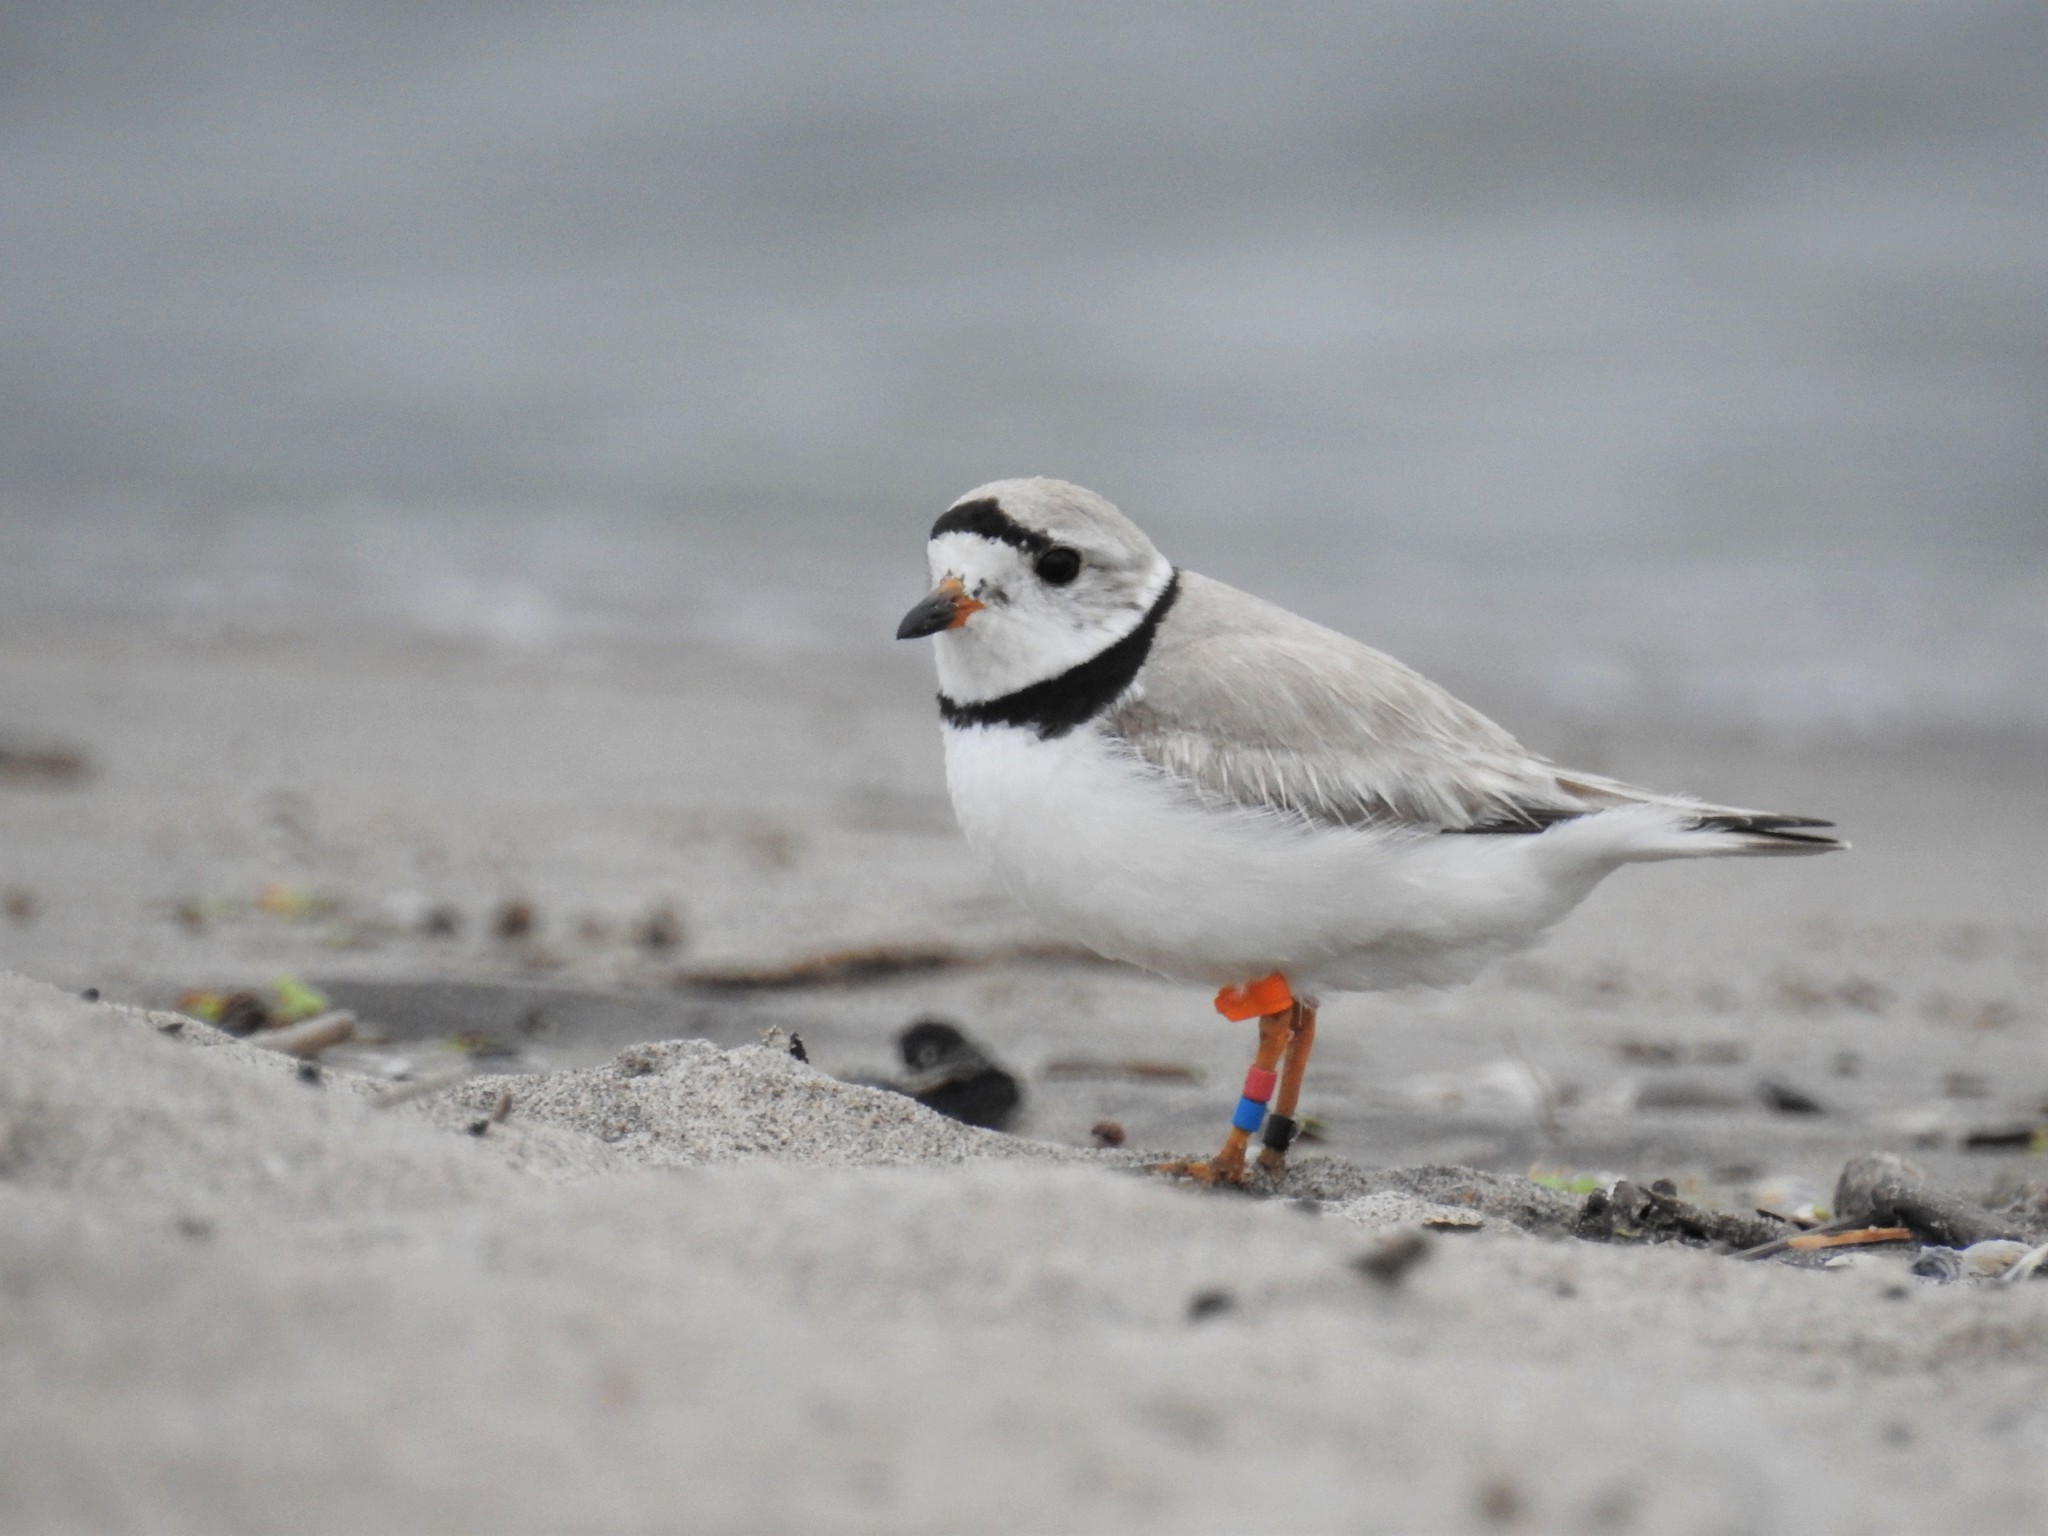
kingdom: Animalia
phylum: Chordata
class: Aves
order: Charadriiformes
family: Charadriidae
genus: Charadrius
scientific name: Charadrius melodus
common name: Piping plover
